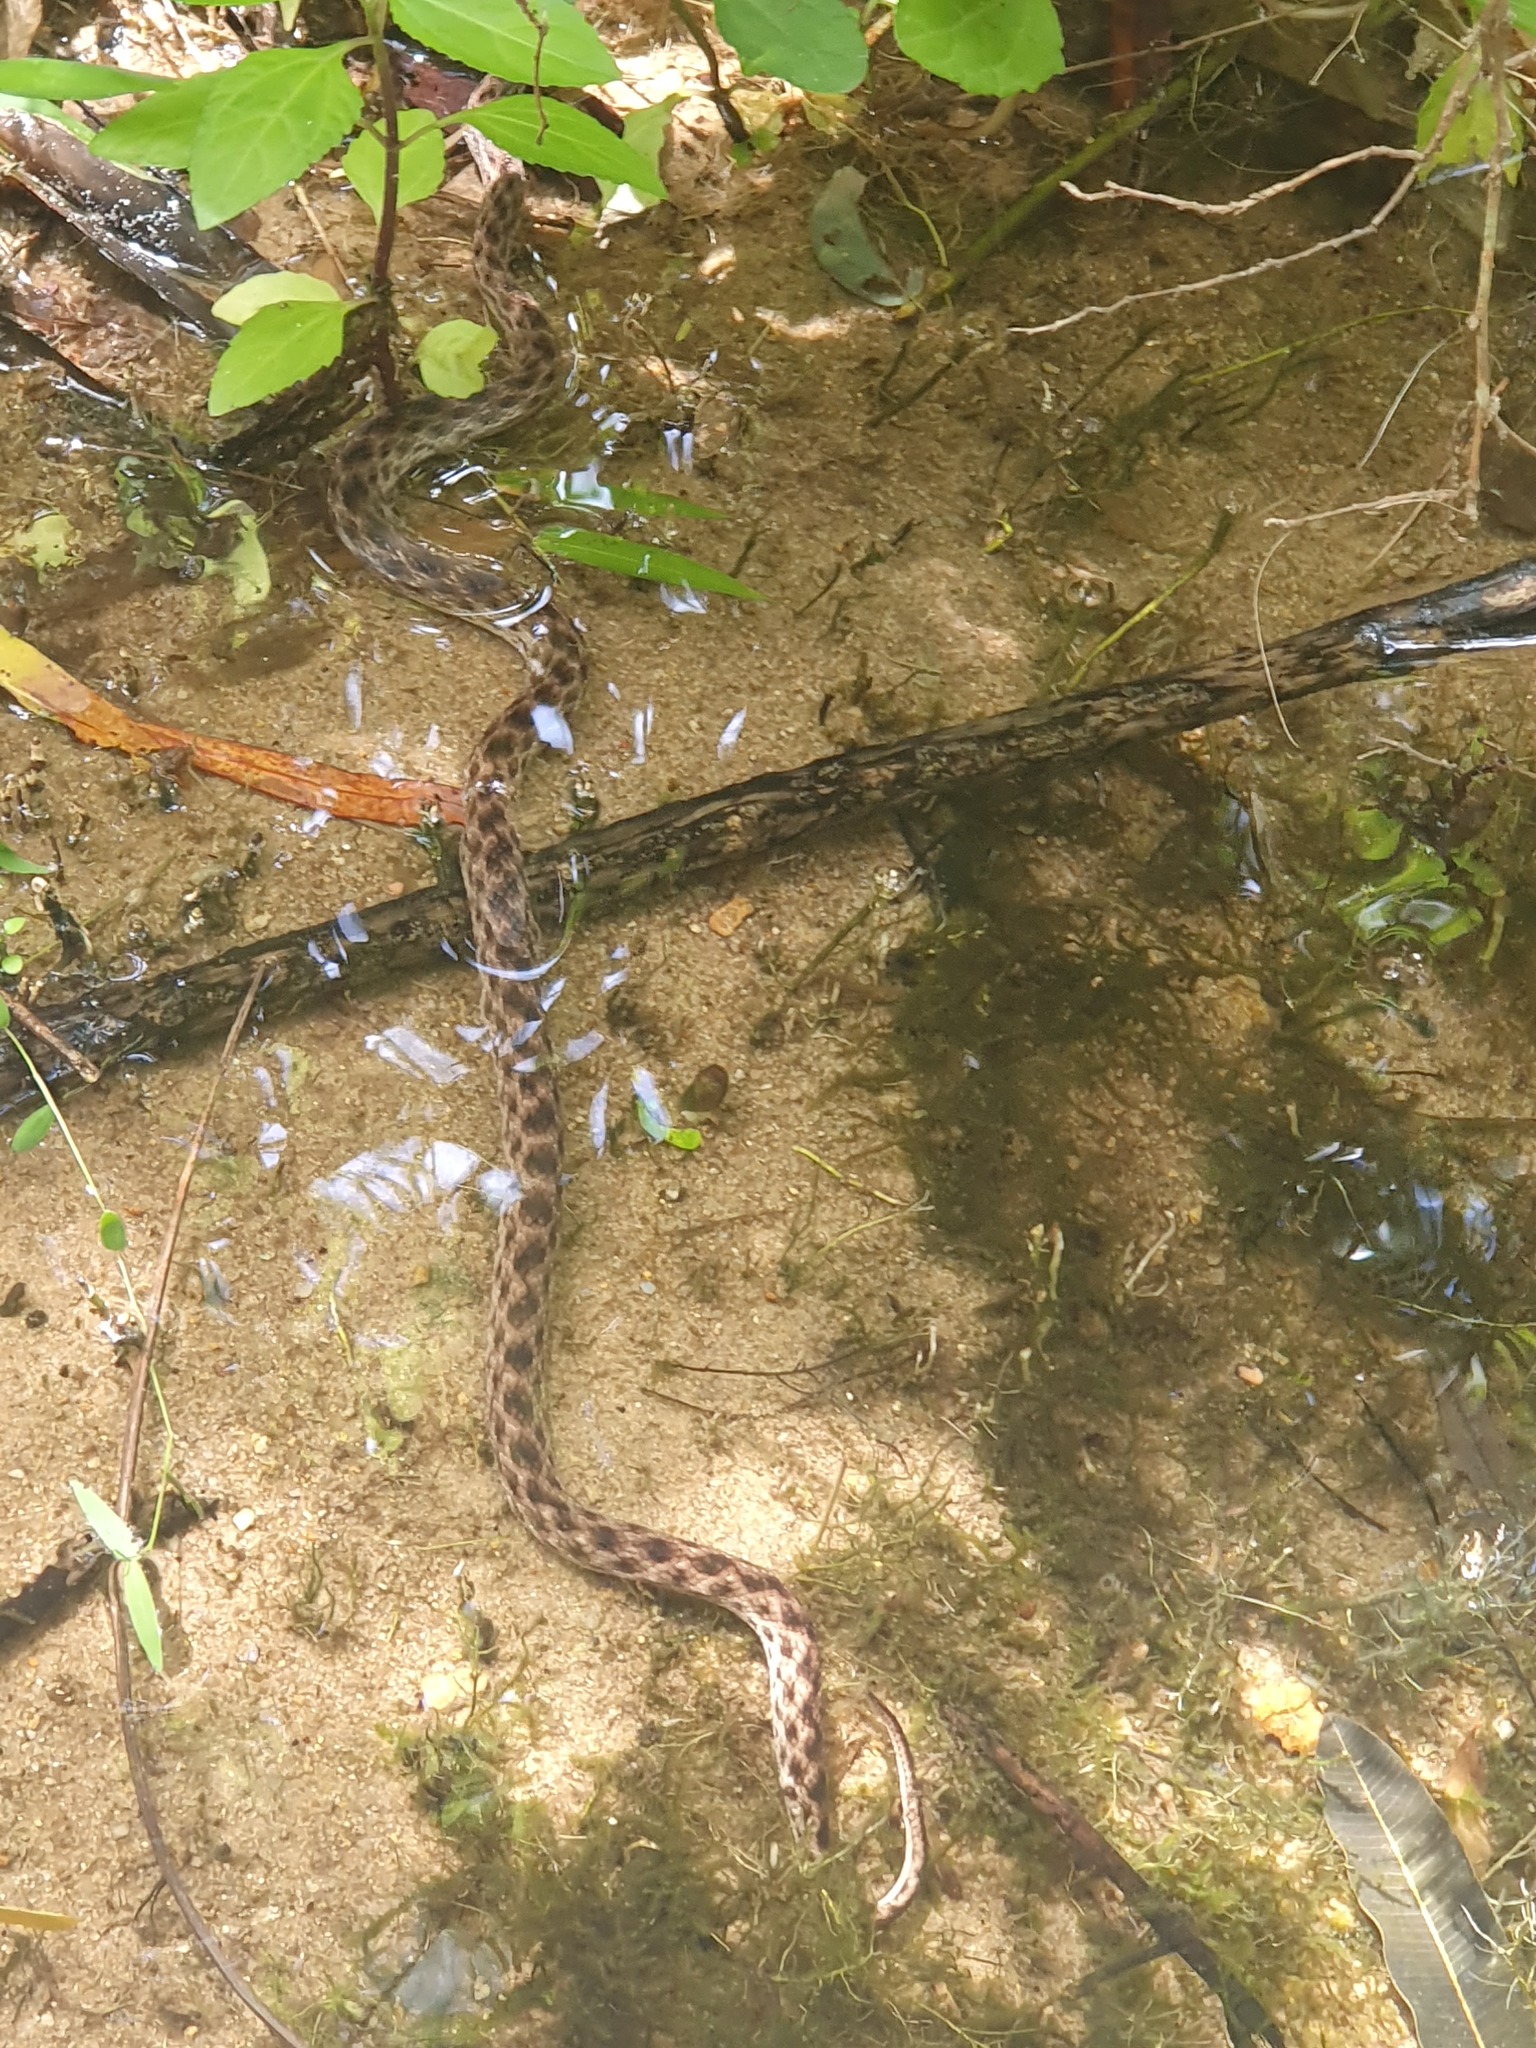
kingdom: Animalia
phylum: Chordata
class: Squamata
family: Pseudoxyrhophiidae
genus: Madagascarophis
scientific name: Madagascarophis colubrinus
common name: Madagascar night snake
